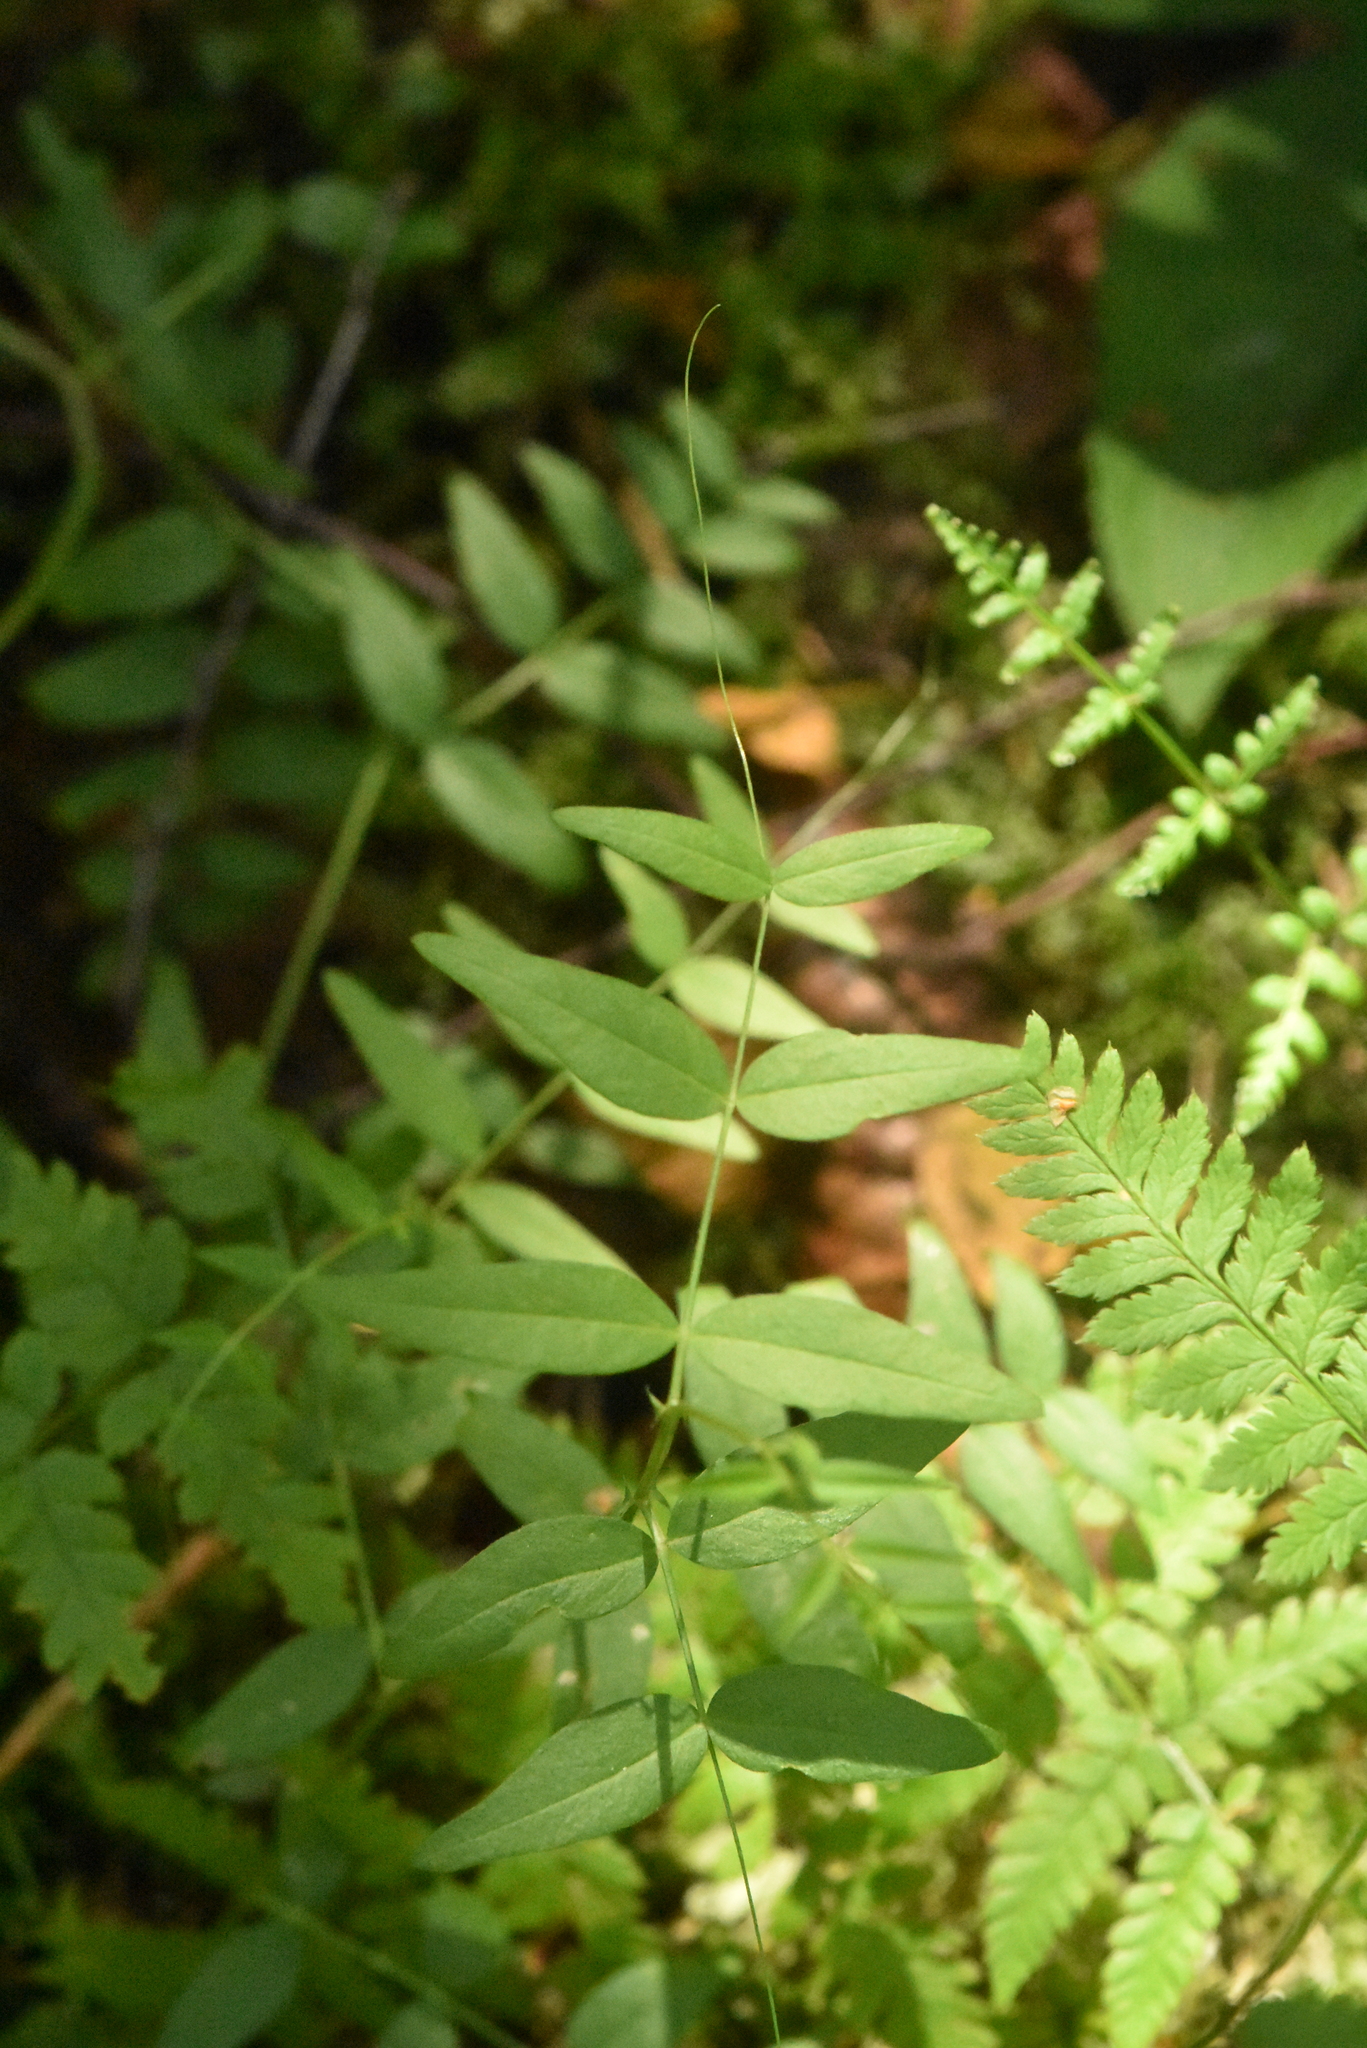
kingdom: Plantae
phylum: Tracheophyta
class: Magnoliopsida
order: Fabales
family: Fabaceae
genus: Vicia
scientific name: Vicia sepium
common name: Bush vetch
